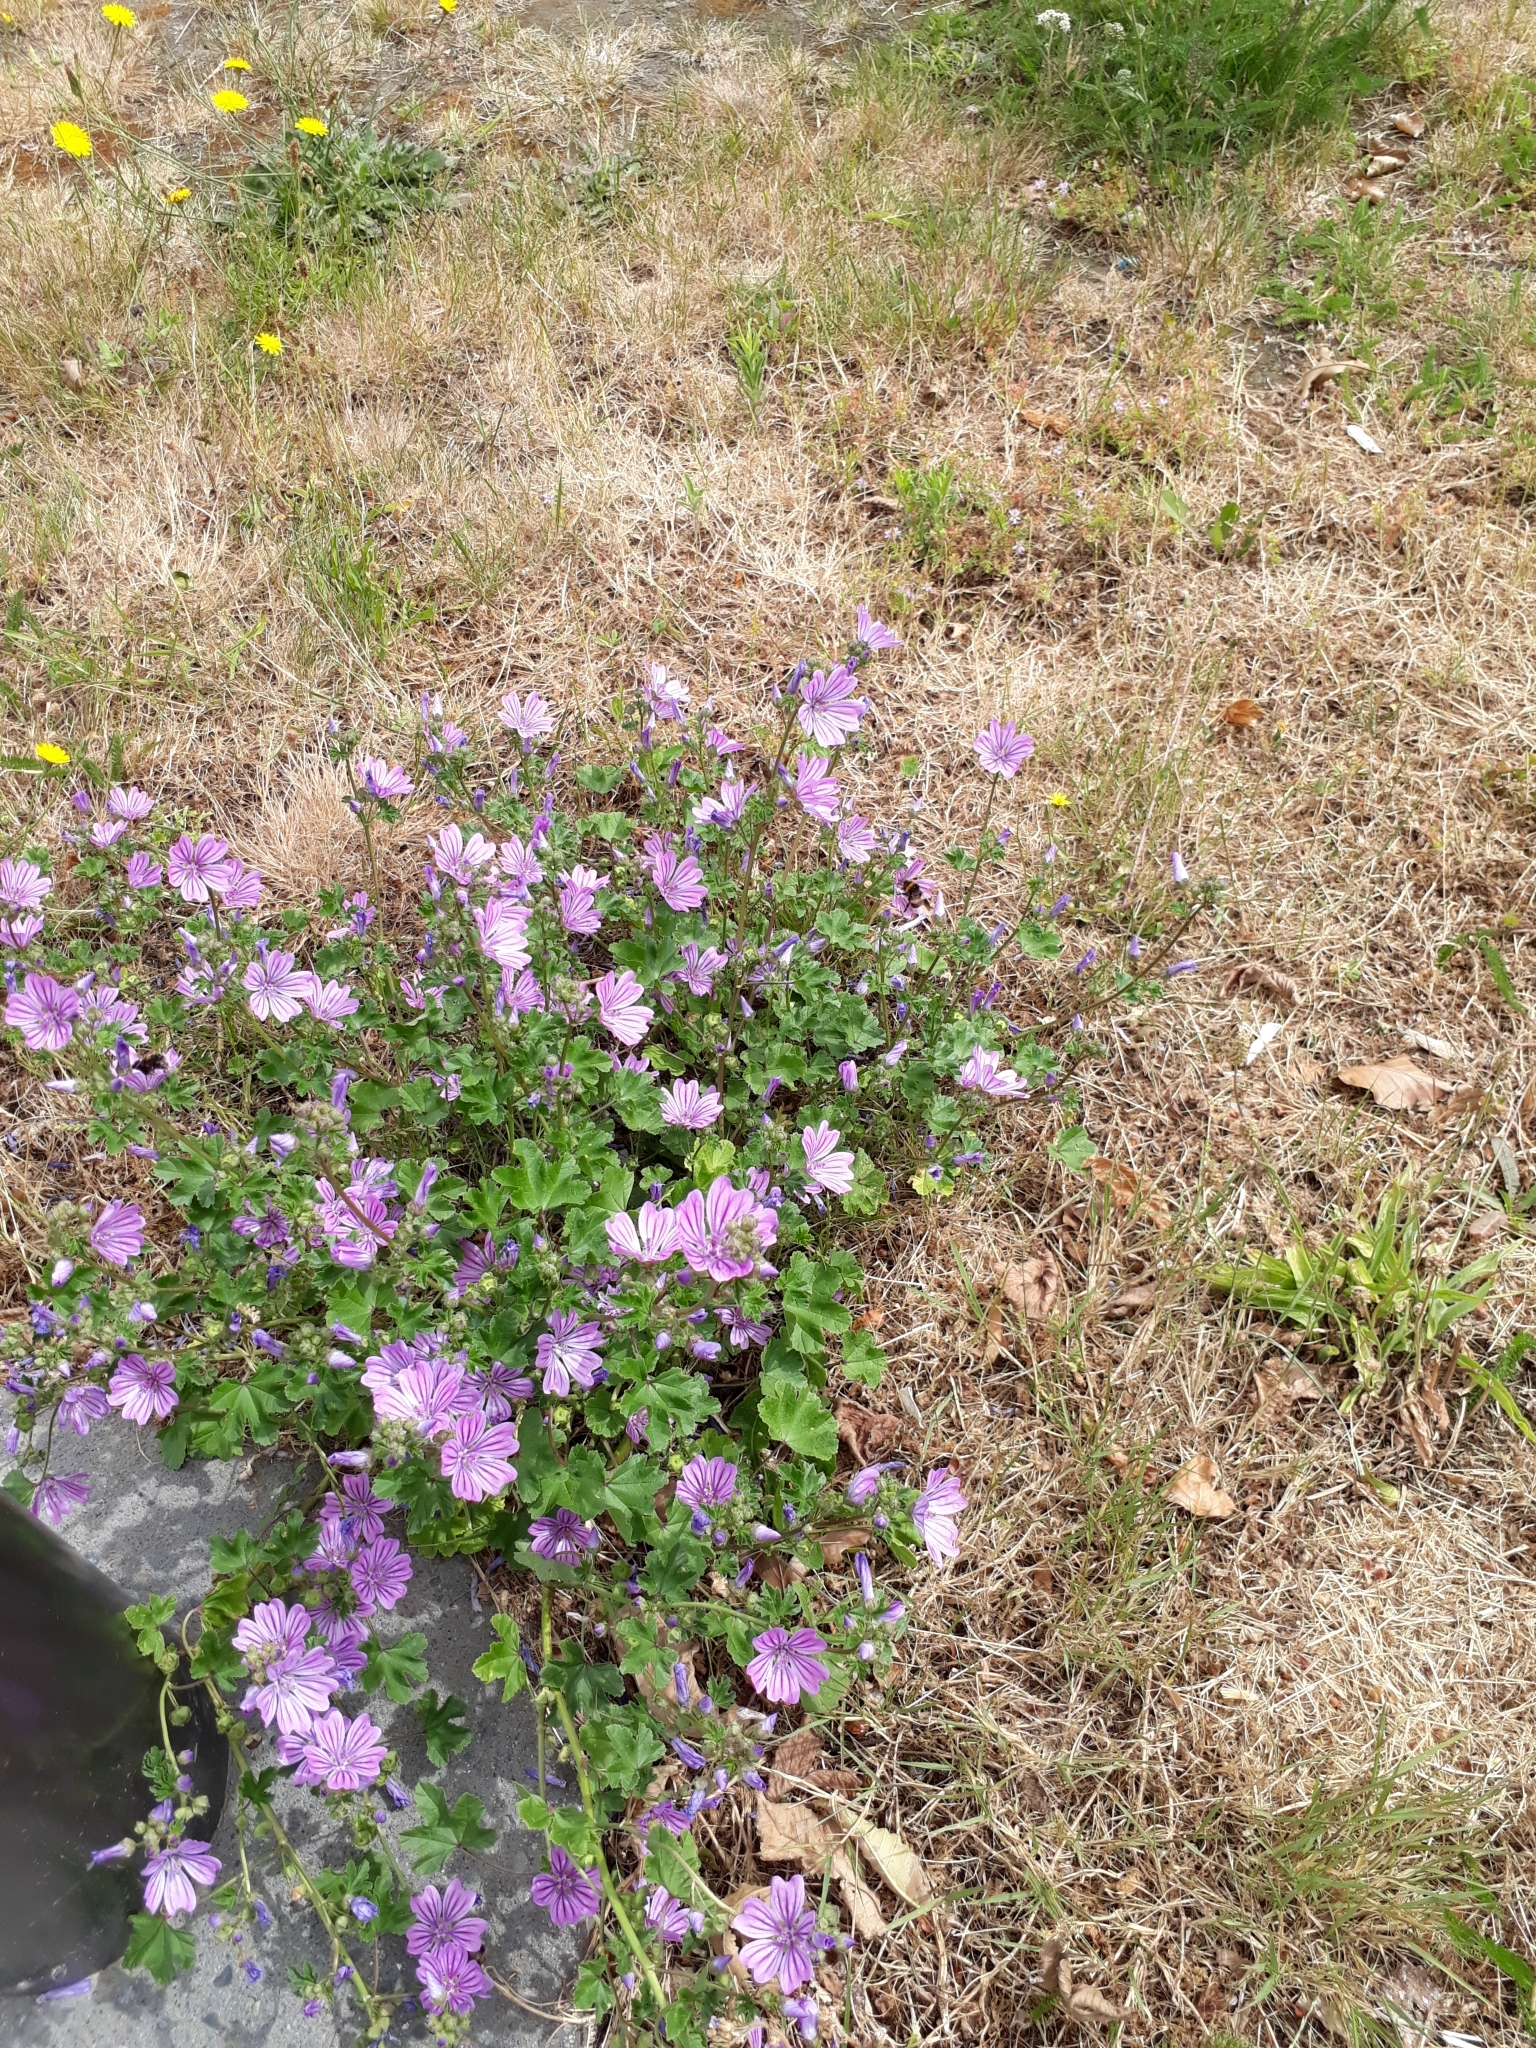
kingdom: Plantae
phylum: Tracheophyta
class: Magnoliopsida
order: Malvales
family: Malvaceae
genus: Malva
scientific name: Malva sylvestris
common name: Common mallow
